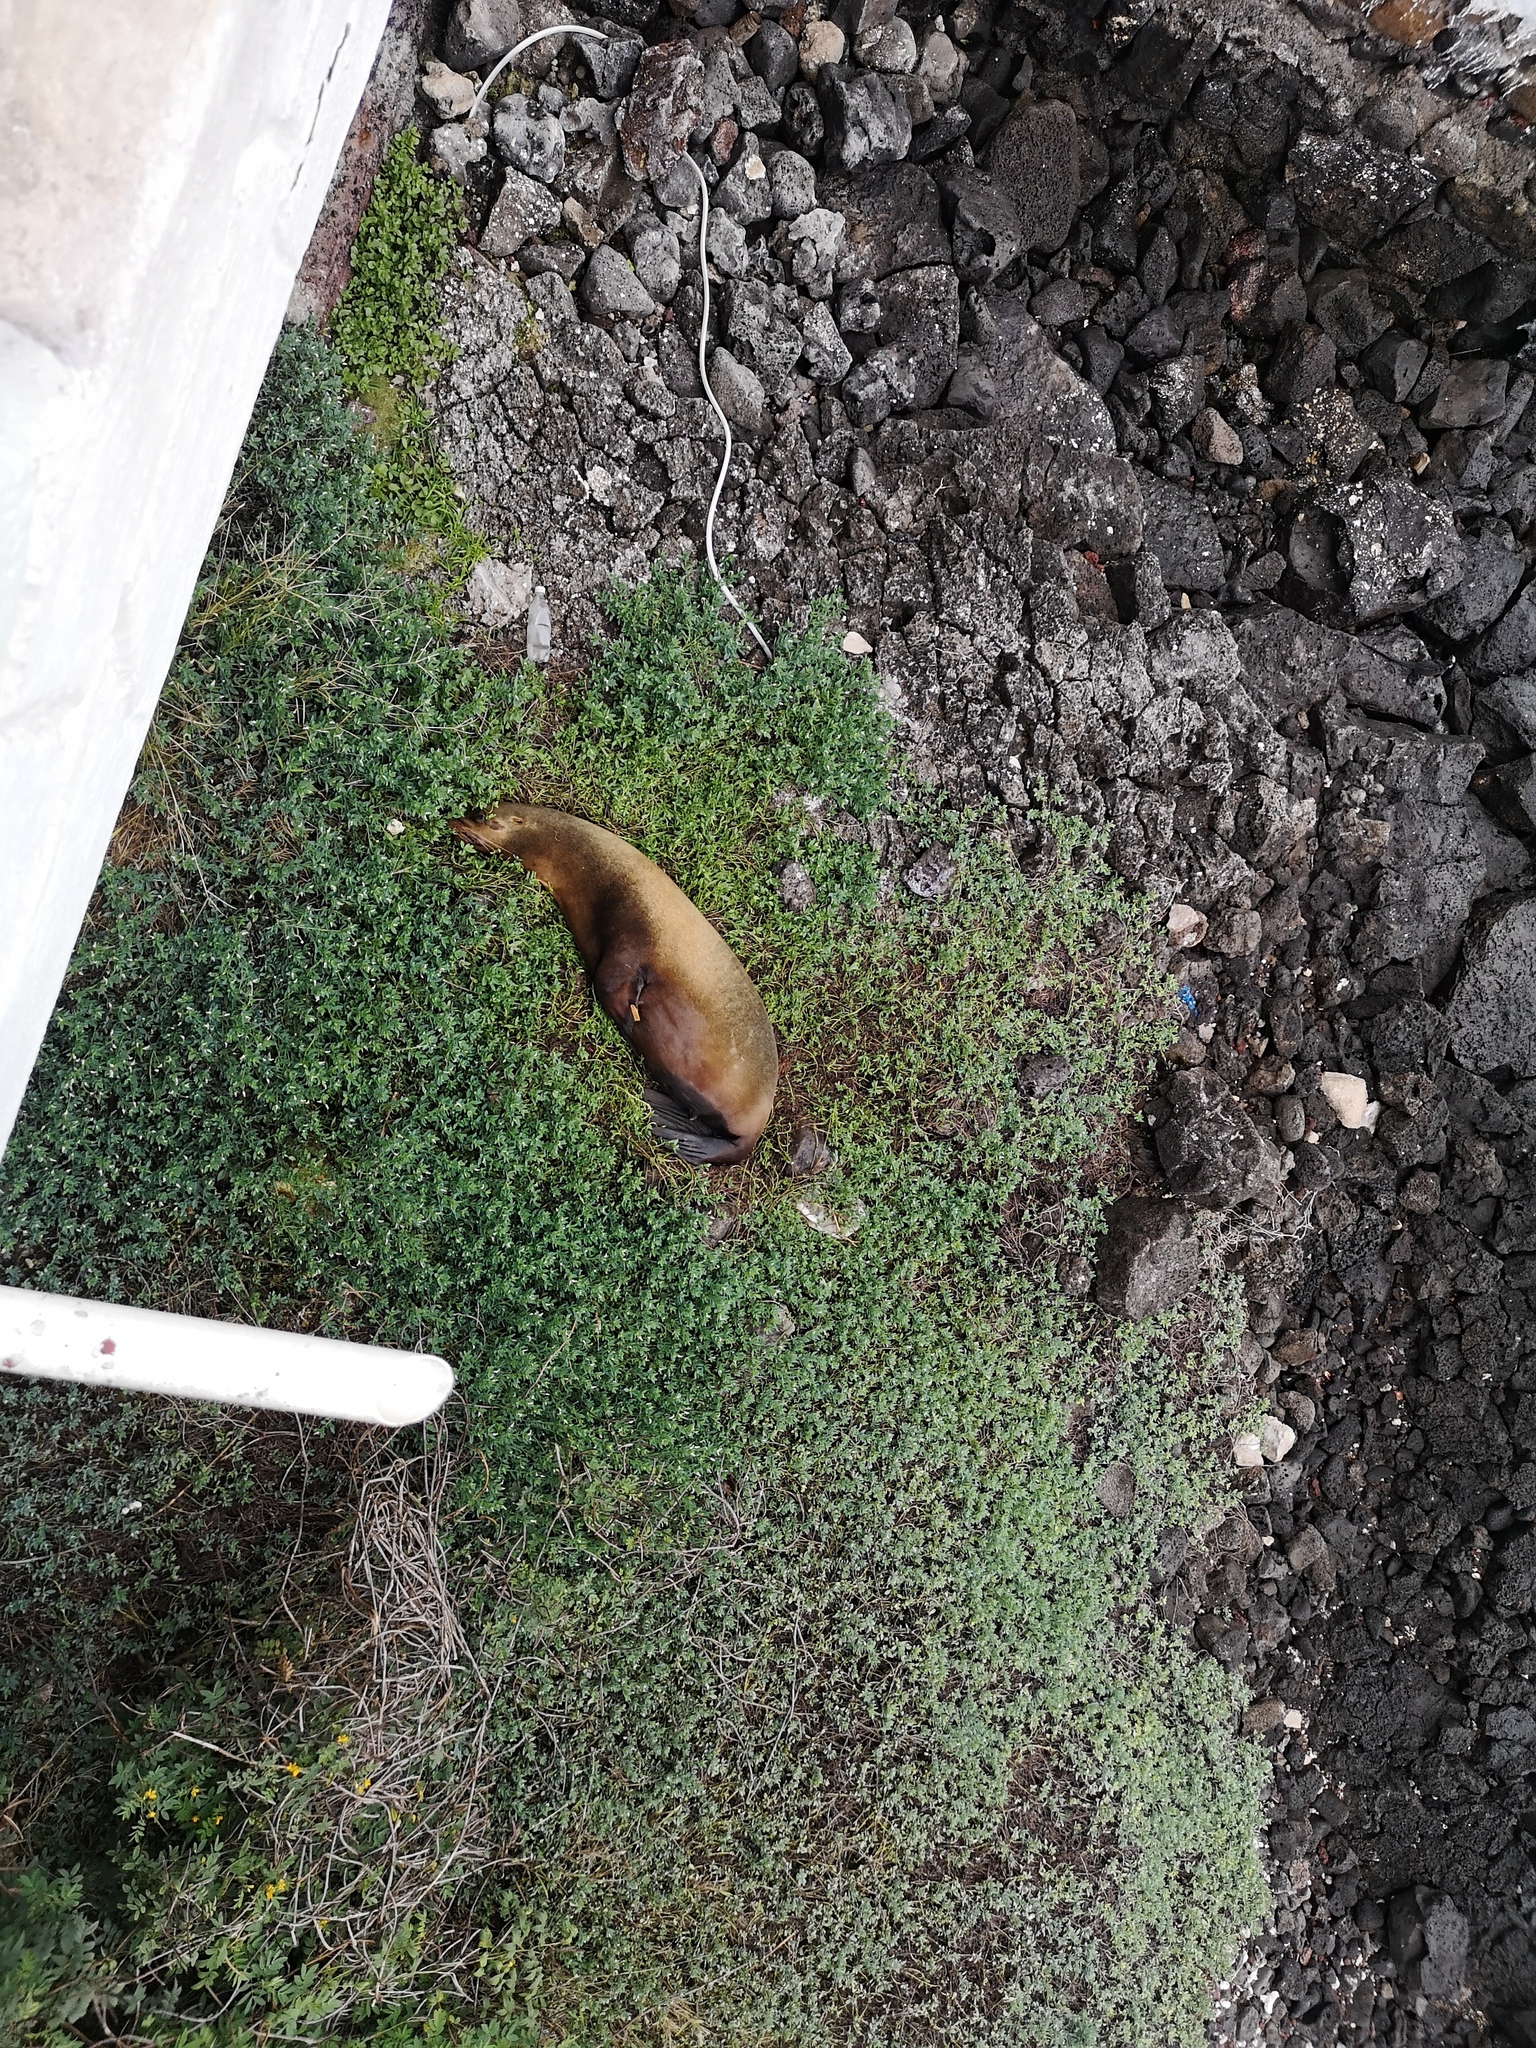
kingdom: Animalia
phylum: Chordata
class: Mammalia
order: Carnivora
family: Otariidae
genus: Zalophus
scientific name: Zalophus wollebaeki
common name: Galapagos sea lion
